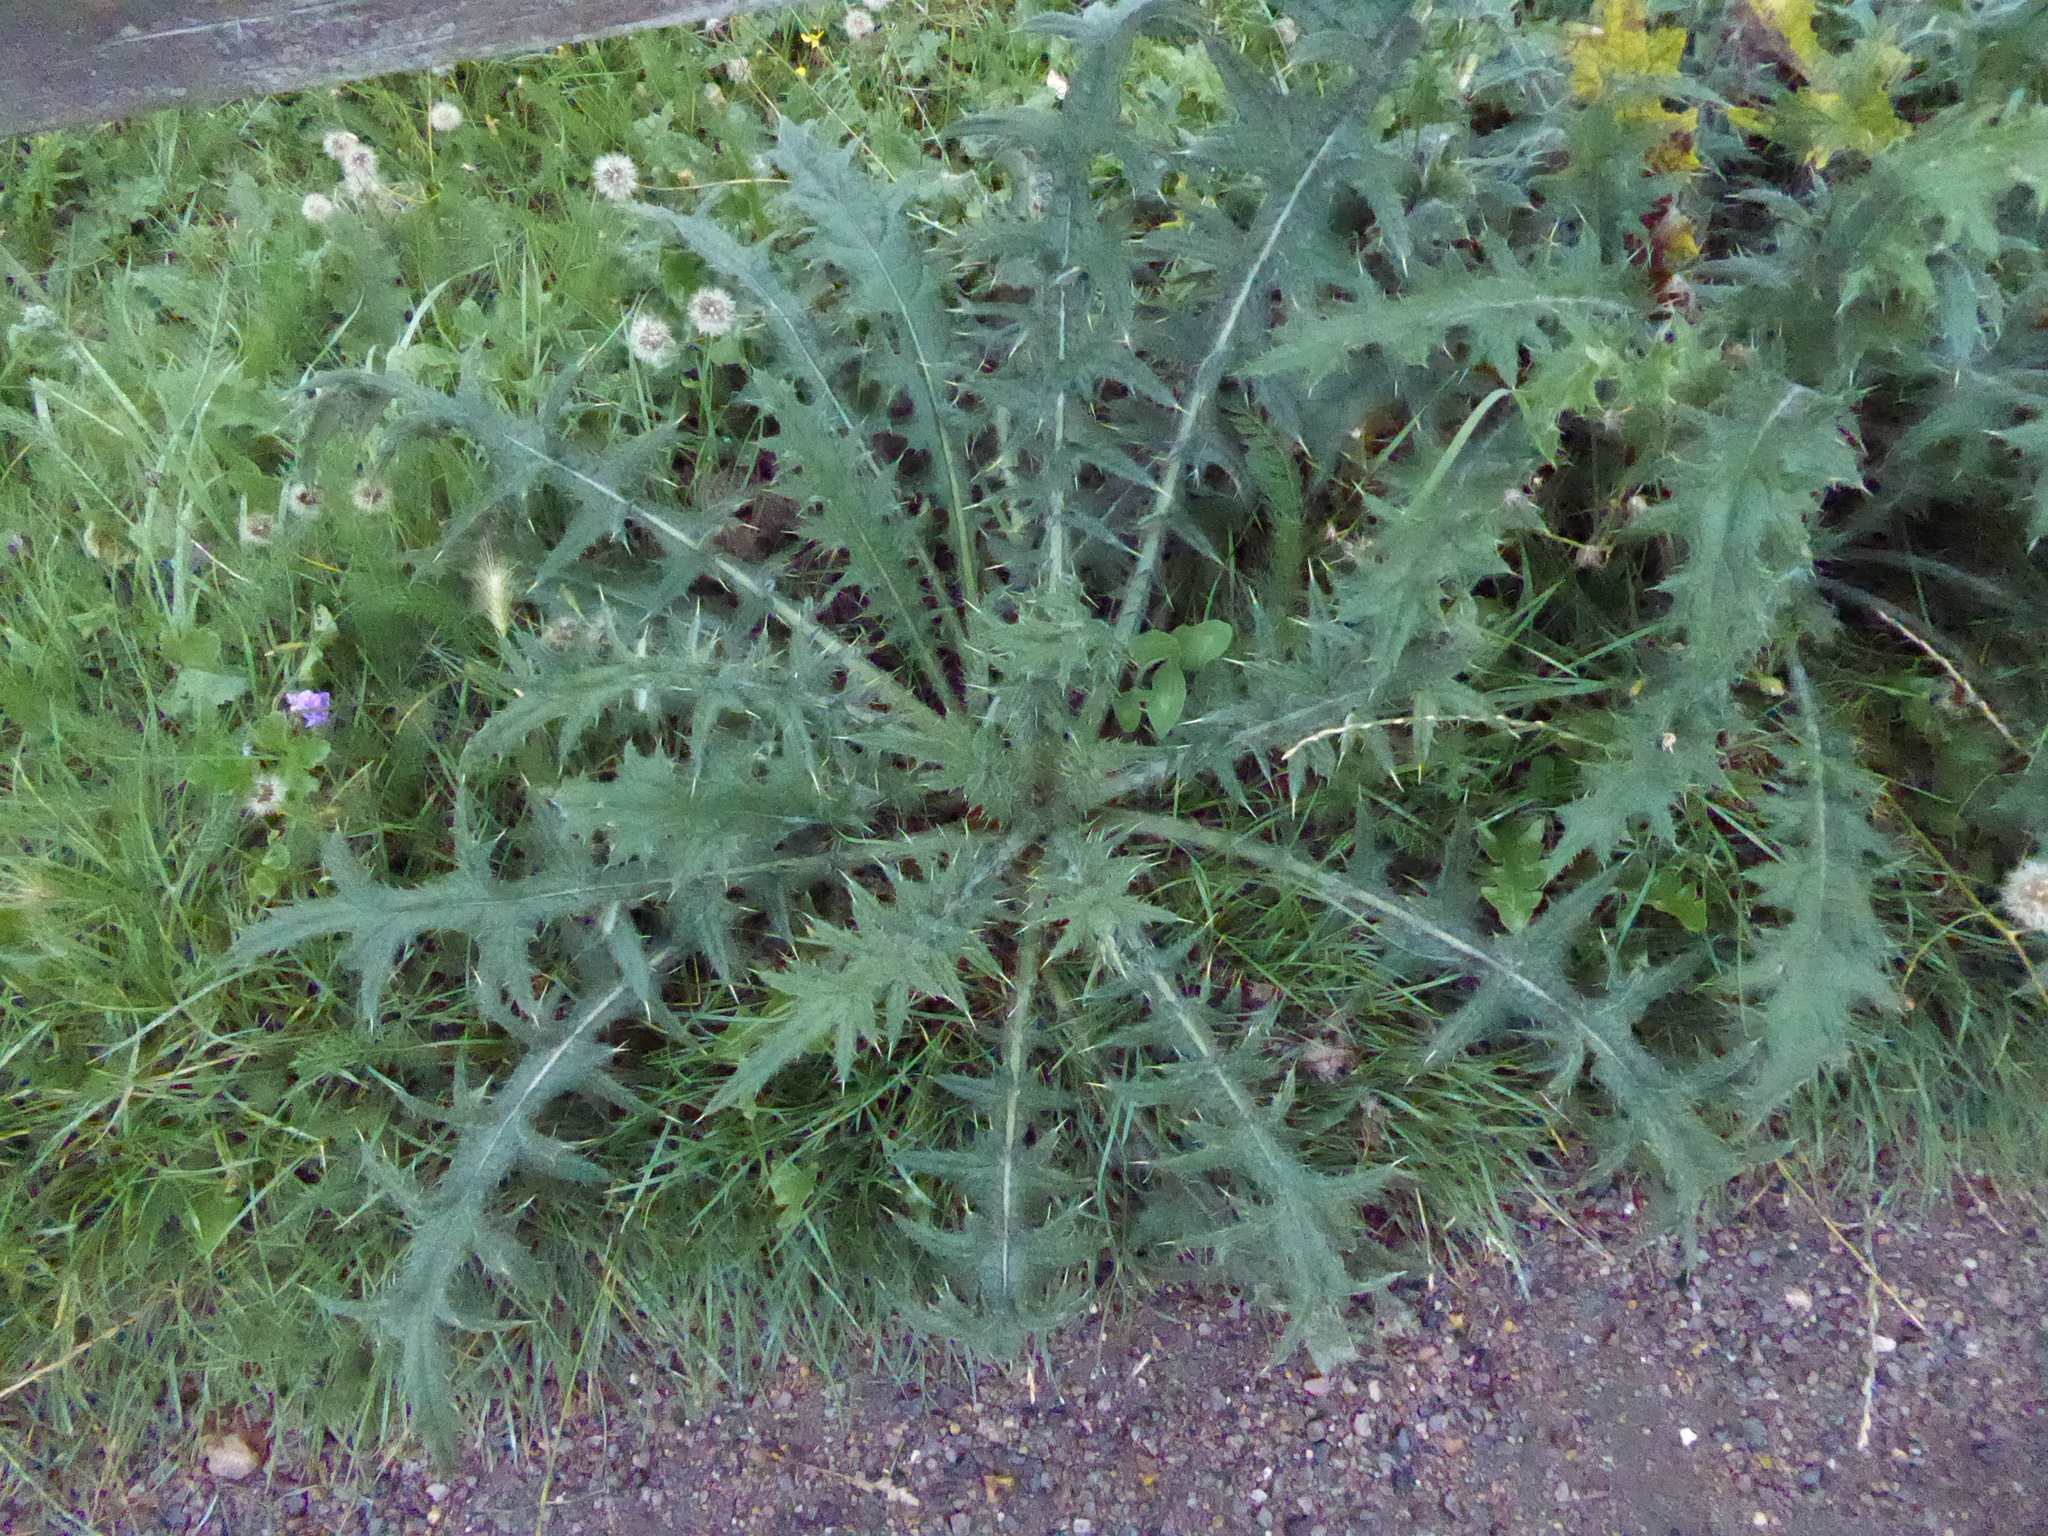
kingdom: Plantae
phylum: Tracheophyta
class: Magnoliopsida
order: Asterales
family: Asteraceae
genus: Cirsium
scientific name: Cirsium vulgare
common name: Bull thistle
